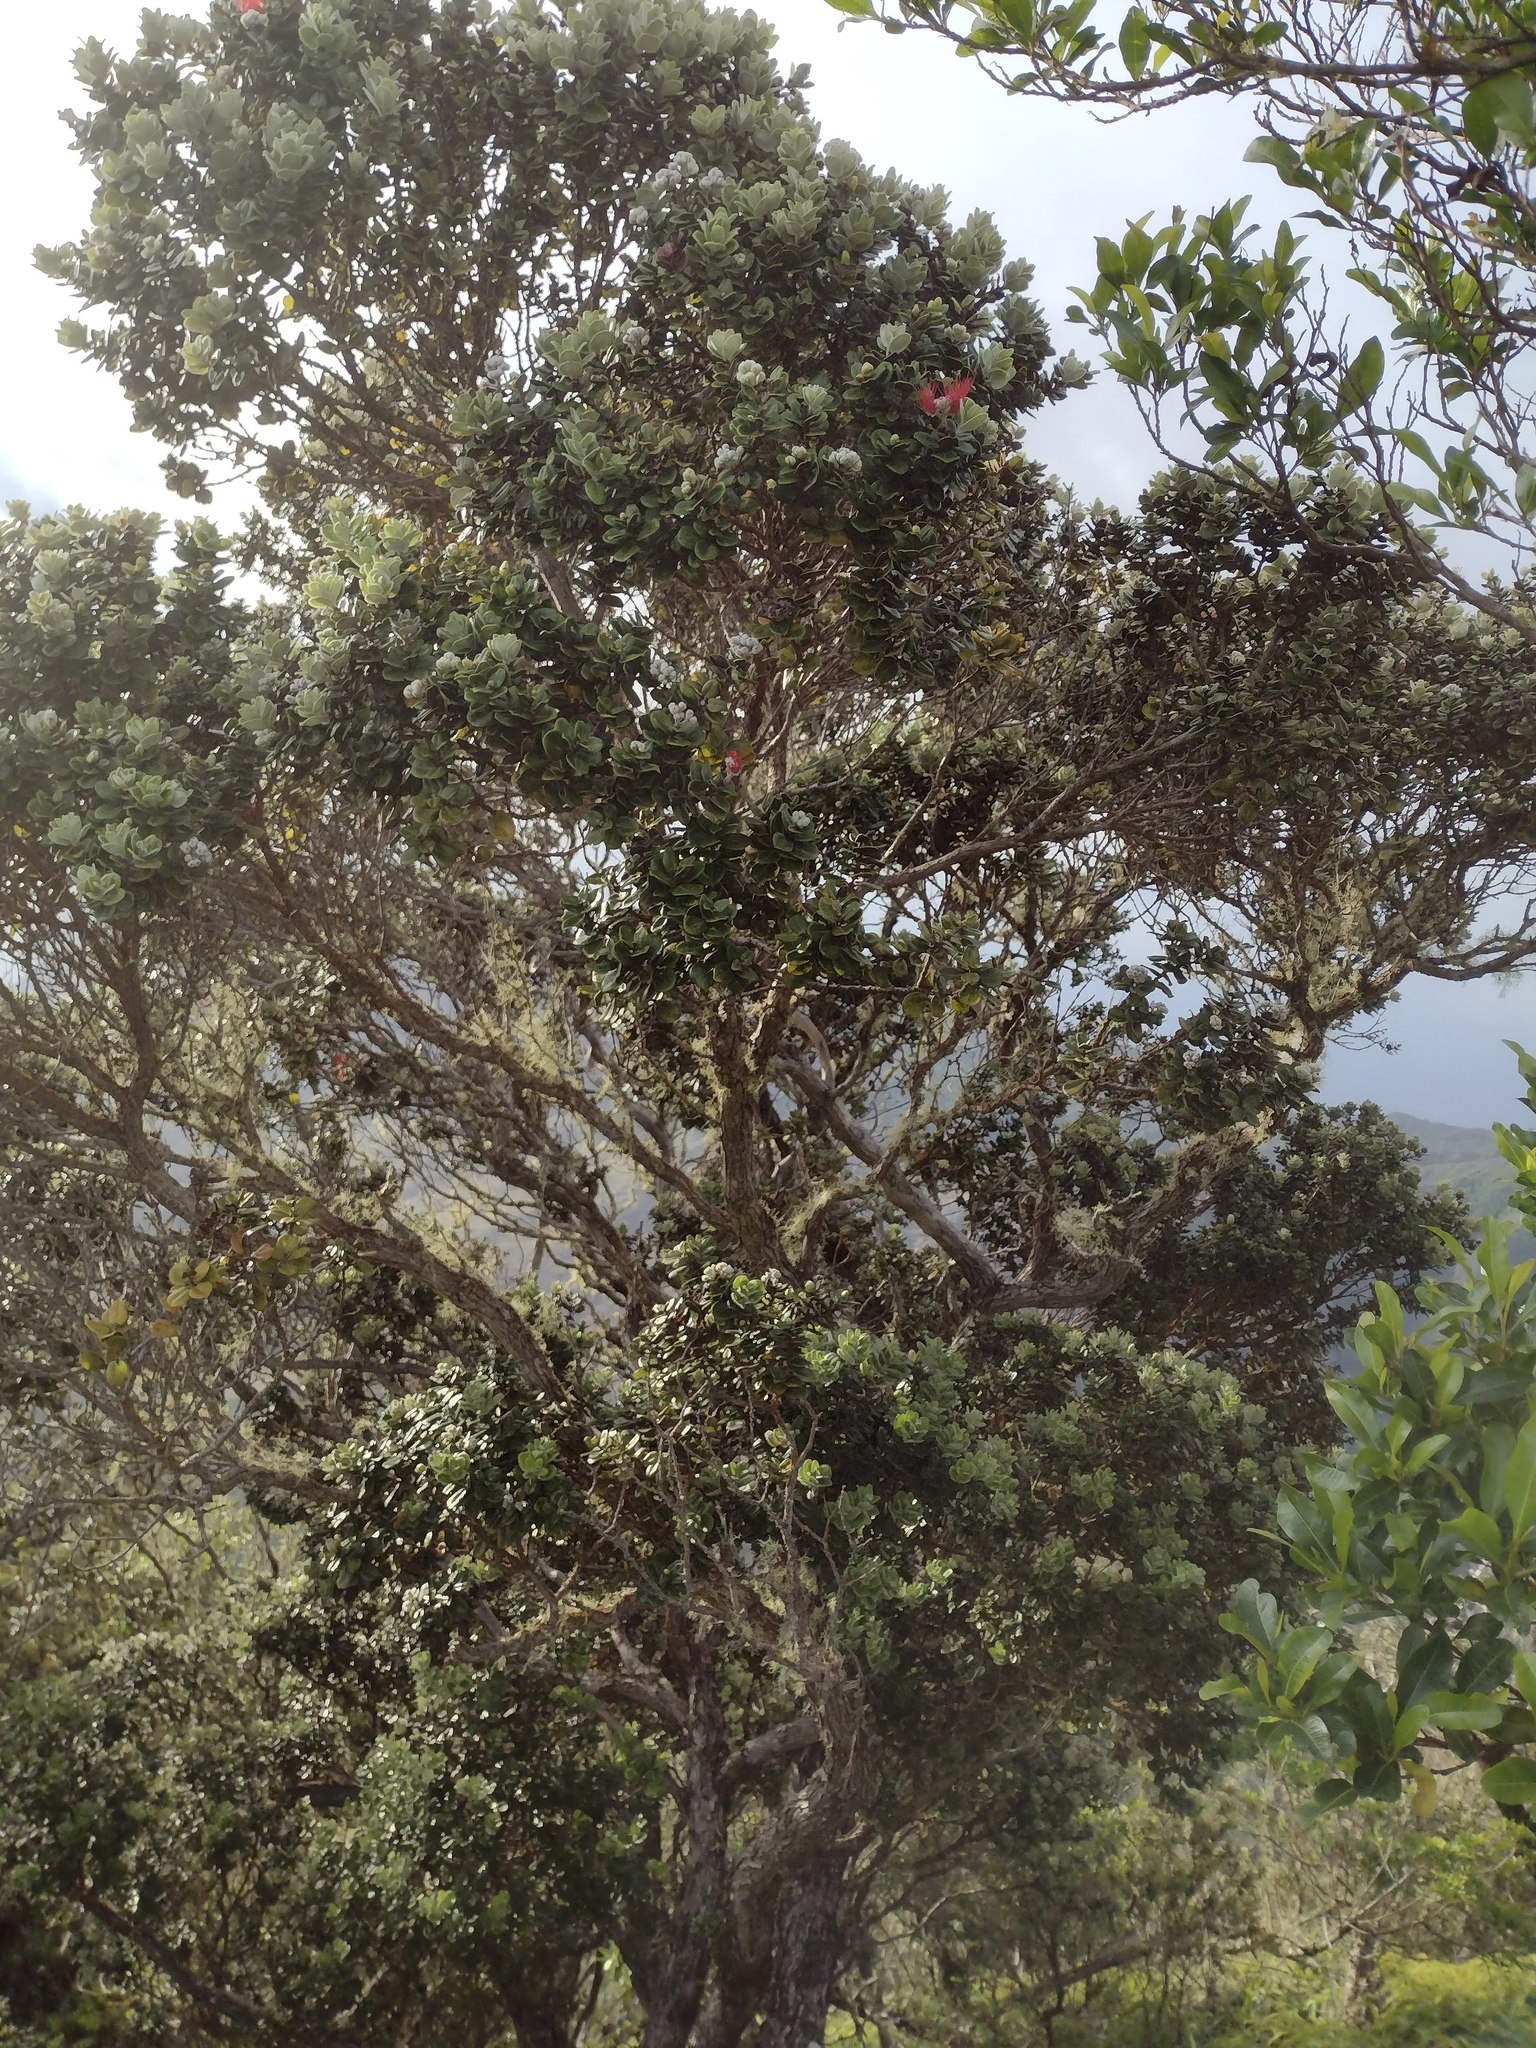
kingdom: Plantae
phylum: Tracheophyta
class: Magnoliopsida
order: Myrtales
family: Myrtaceae
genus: Metrosideros
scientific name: Metrosideros polymorpha
